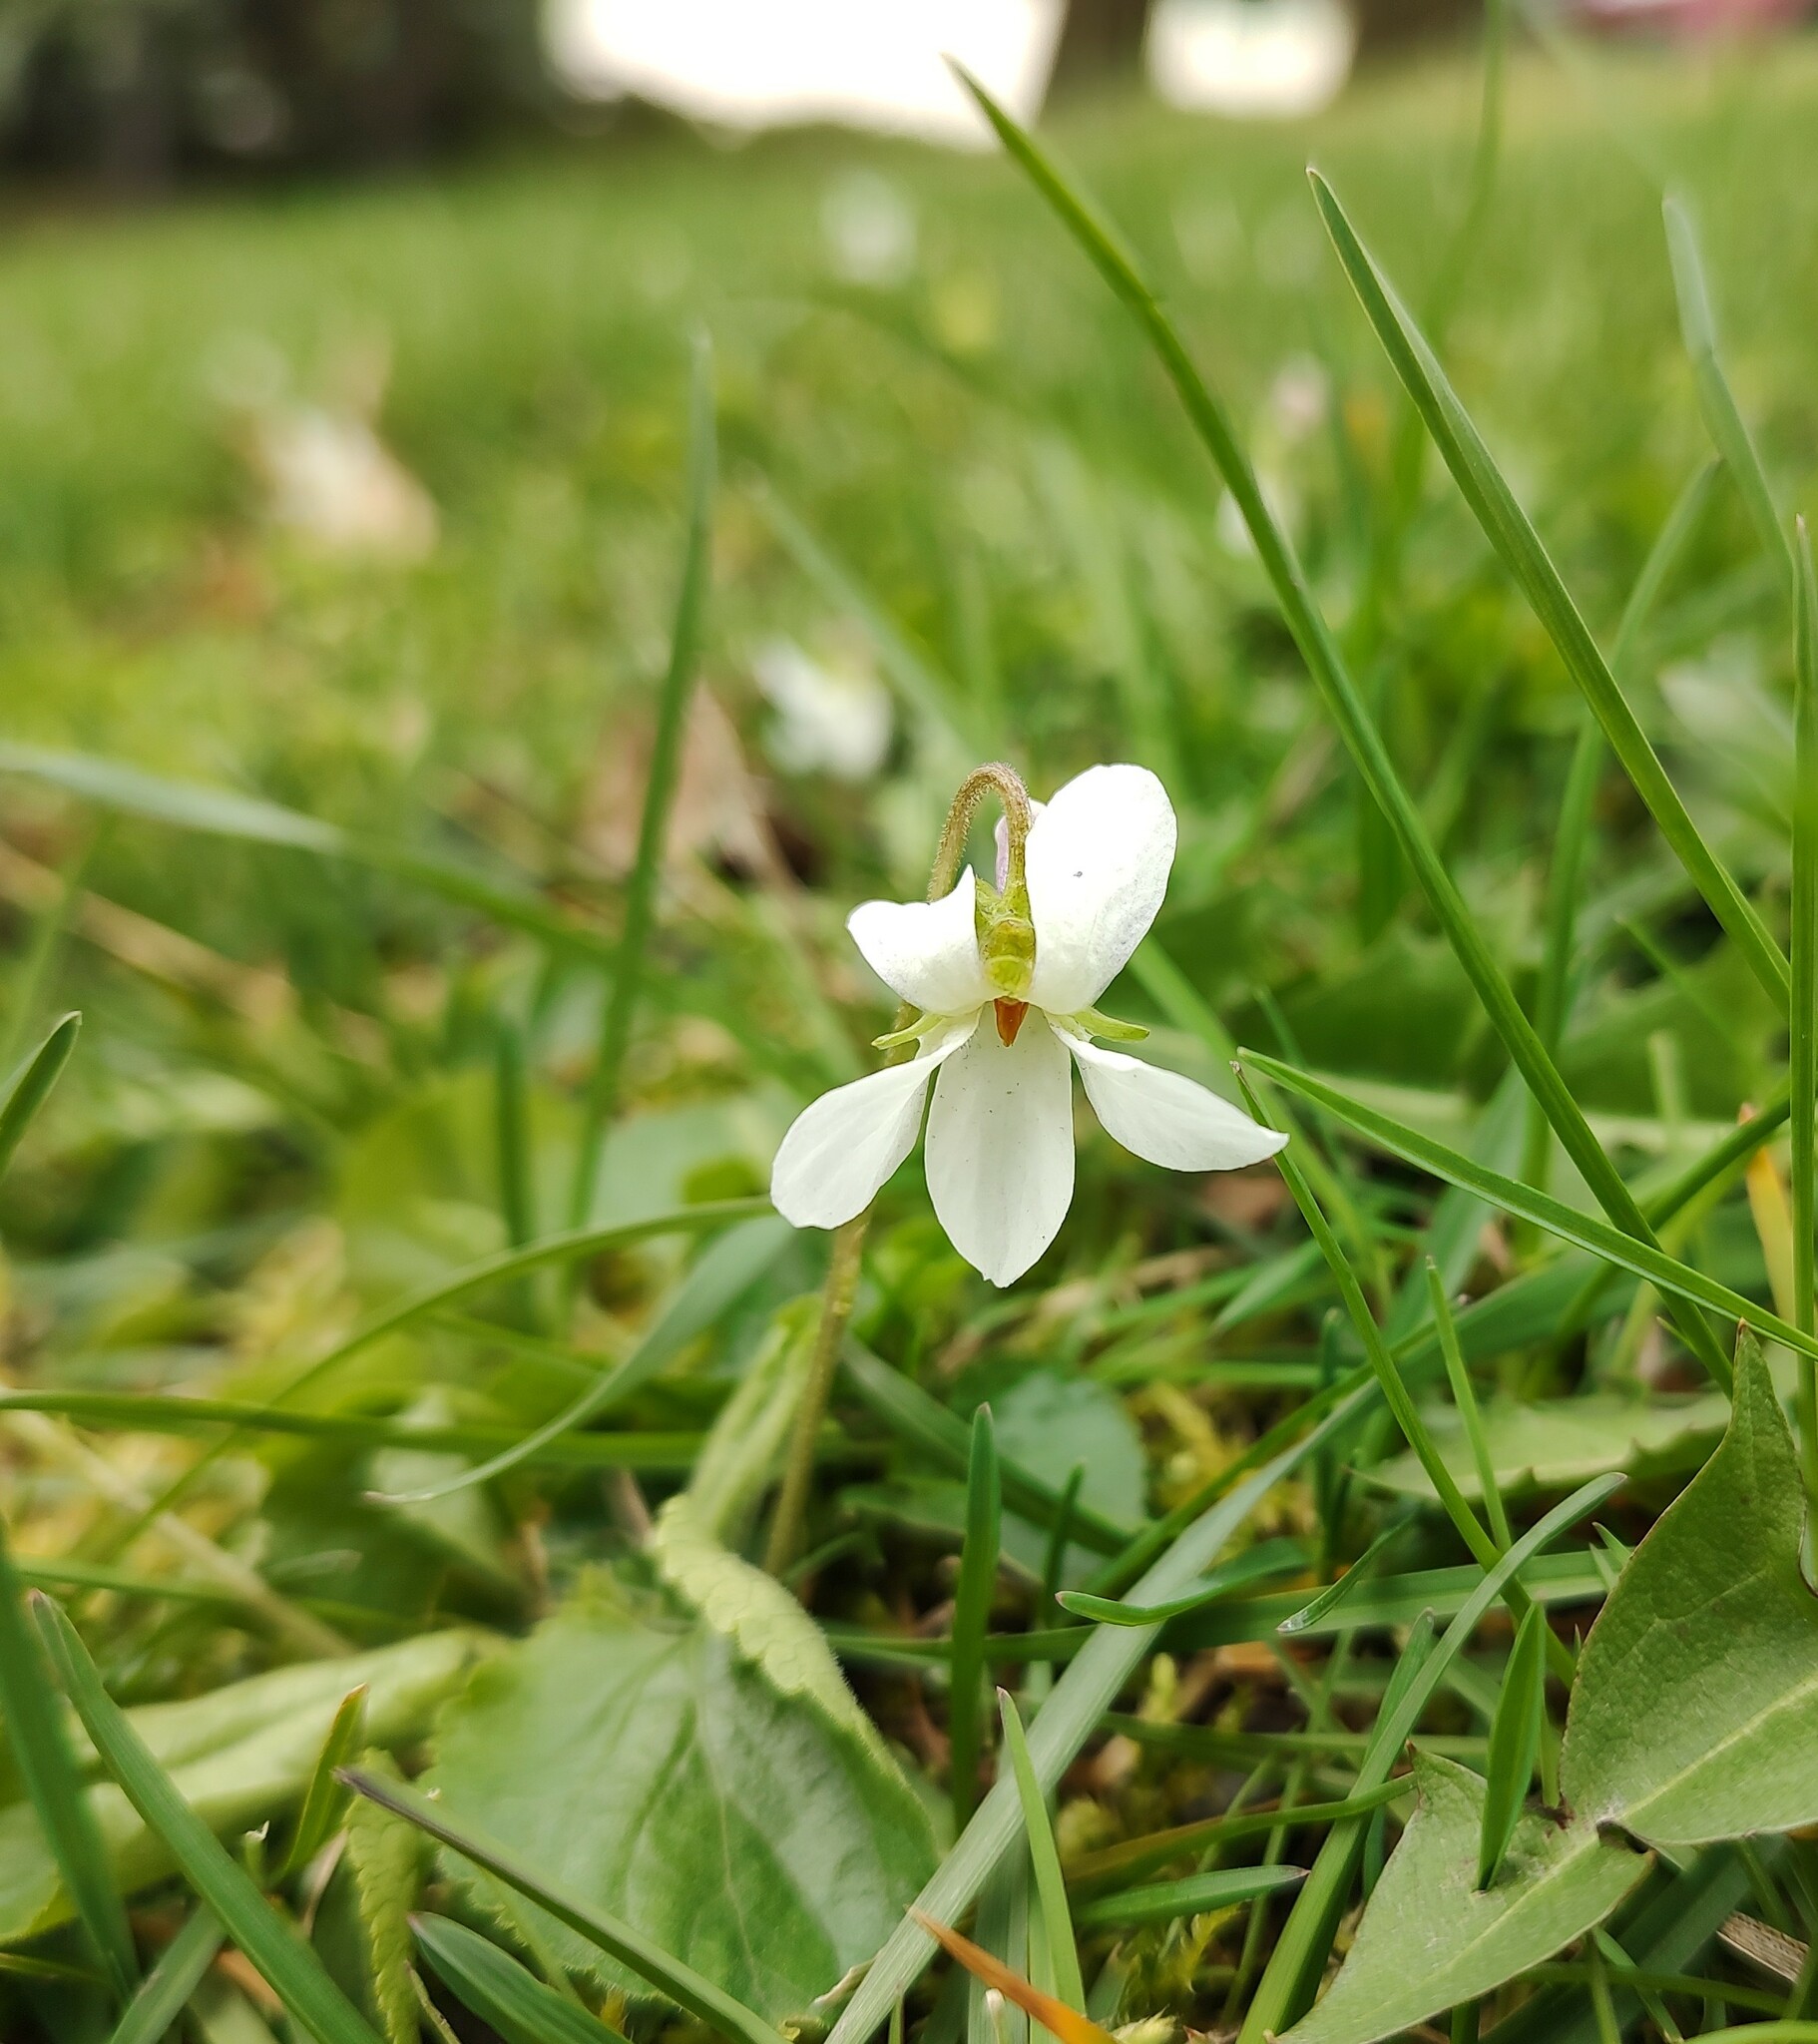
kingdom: Plantae
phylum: Tracheophyta
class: Magnoliopsida
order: Malpighiales
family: Violaceae
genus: Viola
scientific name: Viola odorata
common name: Sweet violet
